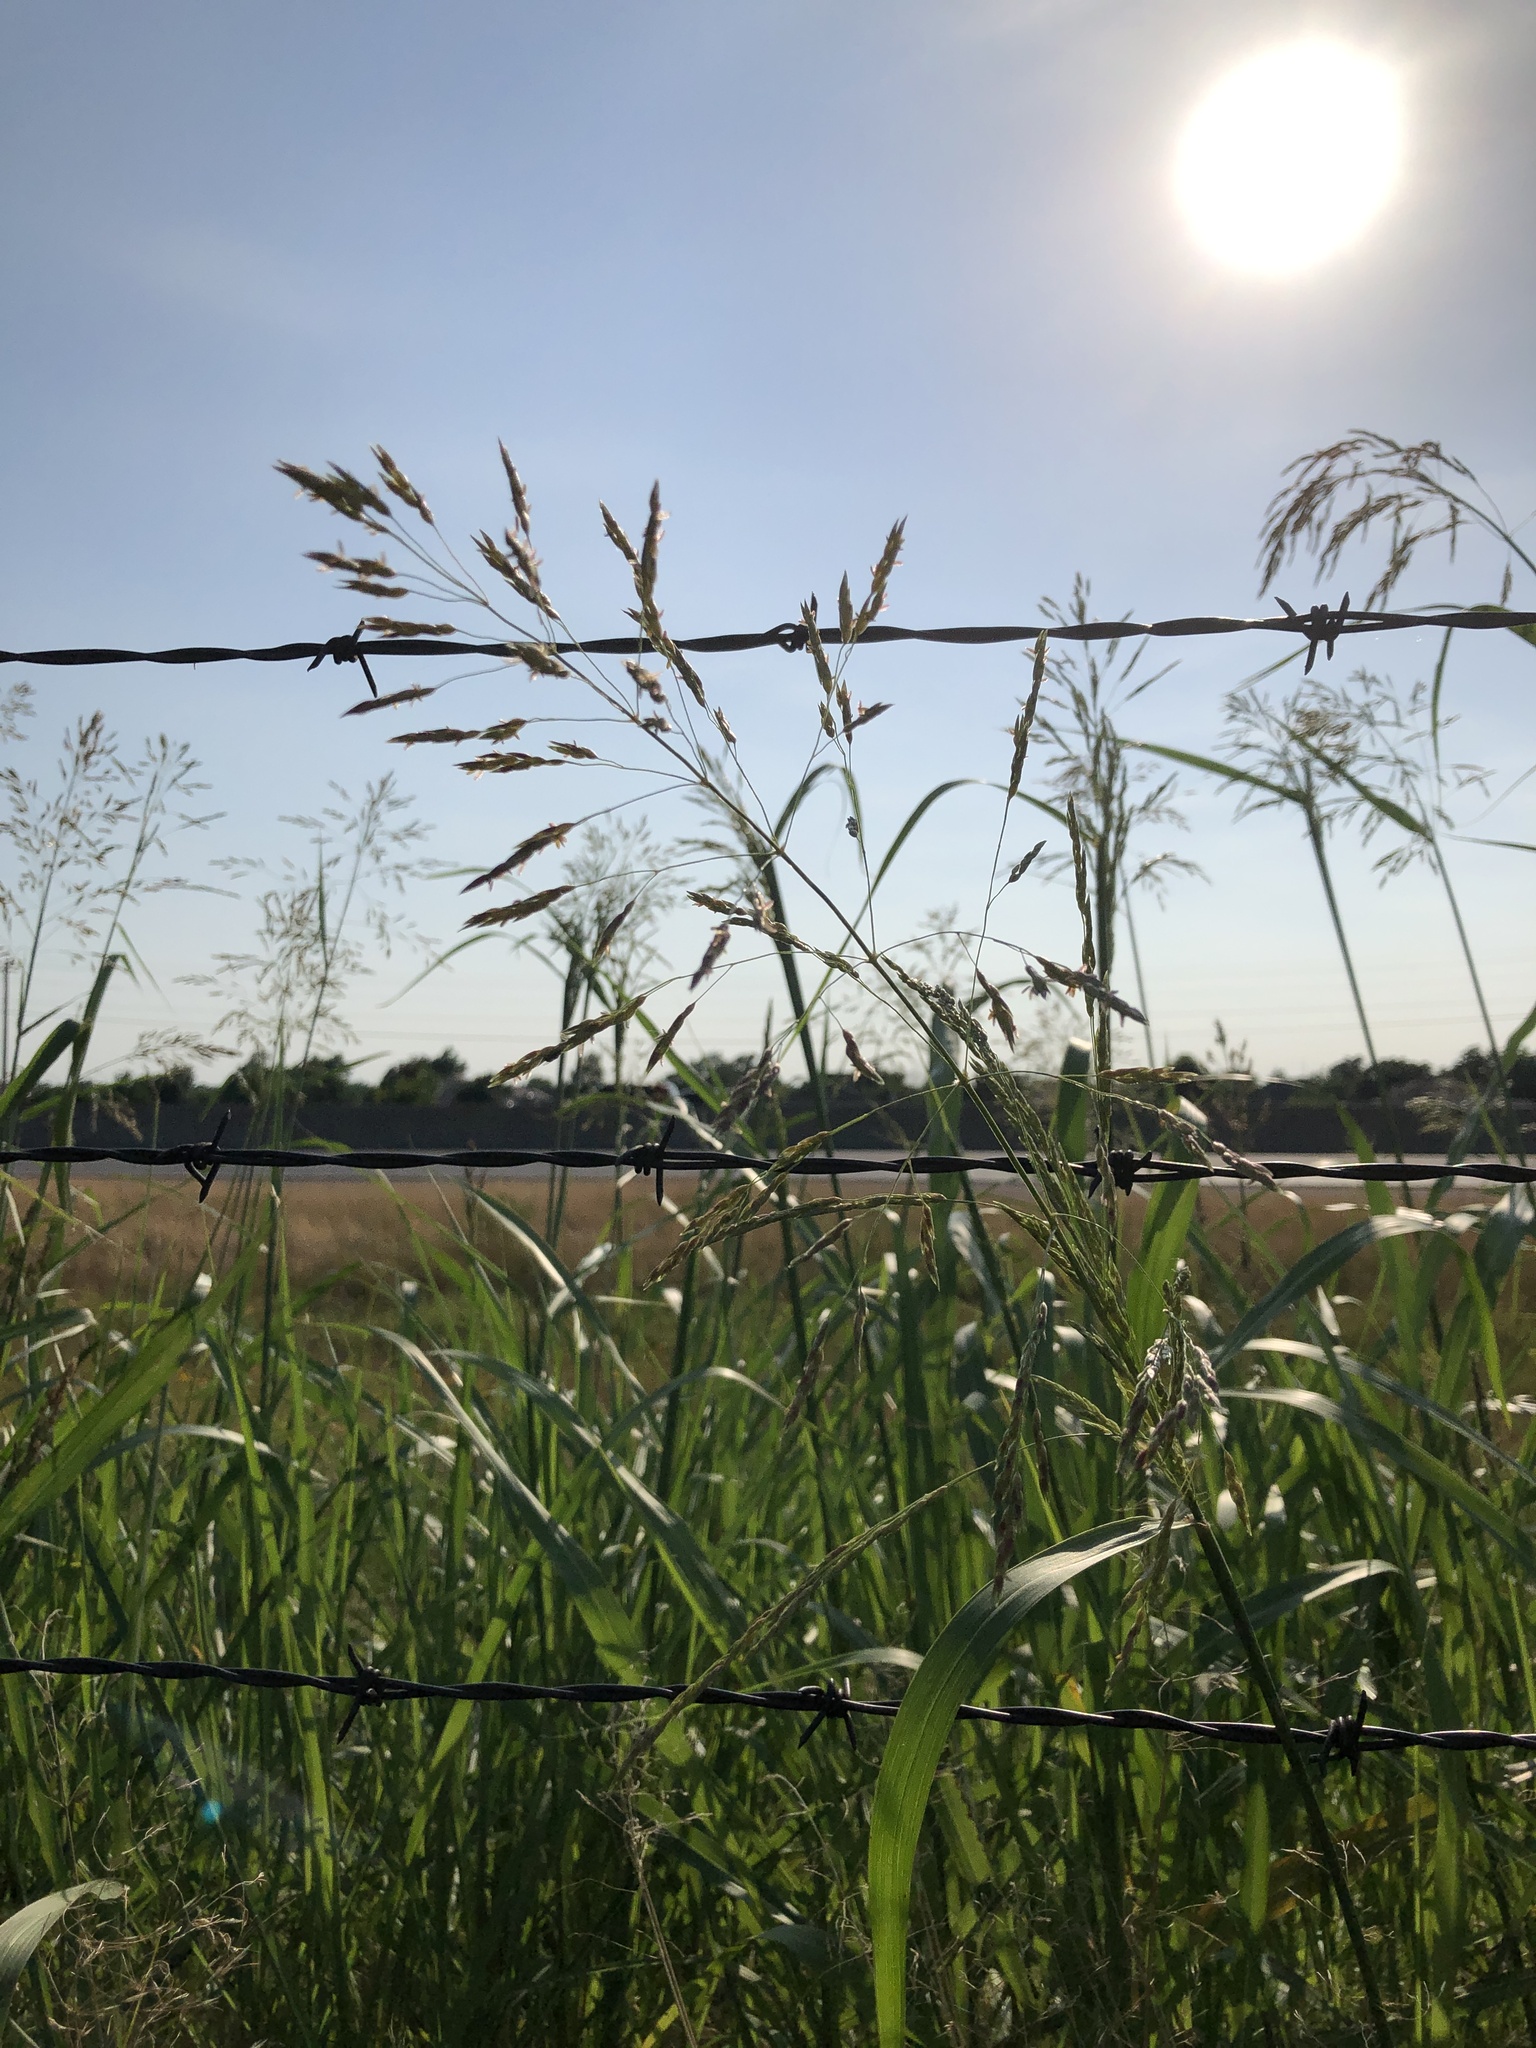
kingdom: Plantae
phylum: Tracheophyta
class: Liliopsida
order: Poales
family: Poaceae
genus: Sorghum
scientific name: Sorghum halepense
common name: Johnson-grass
